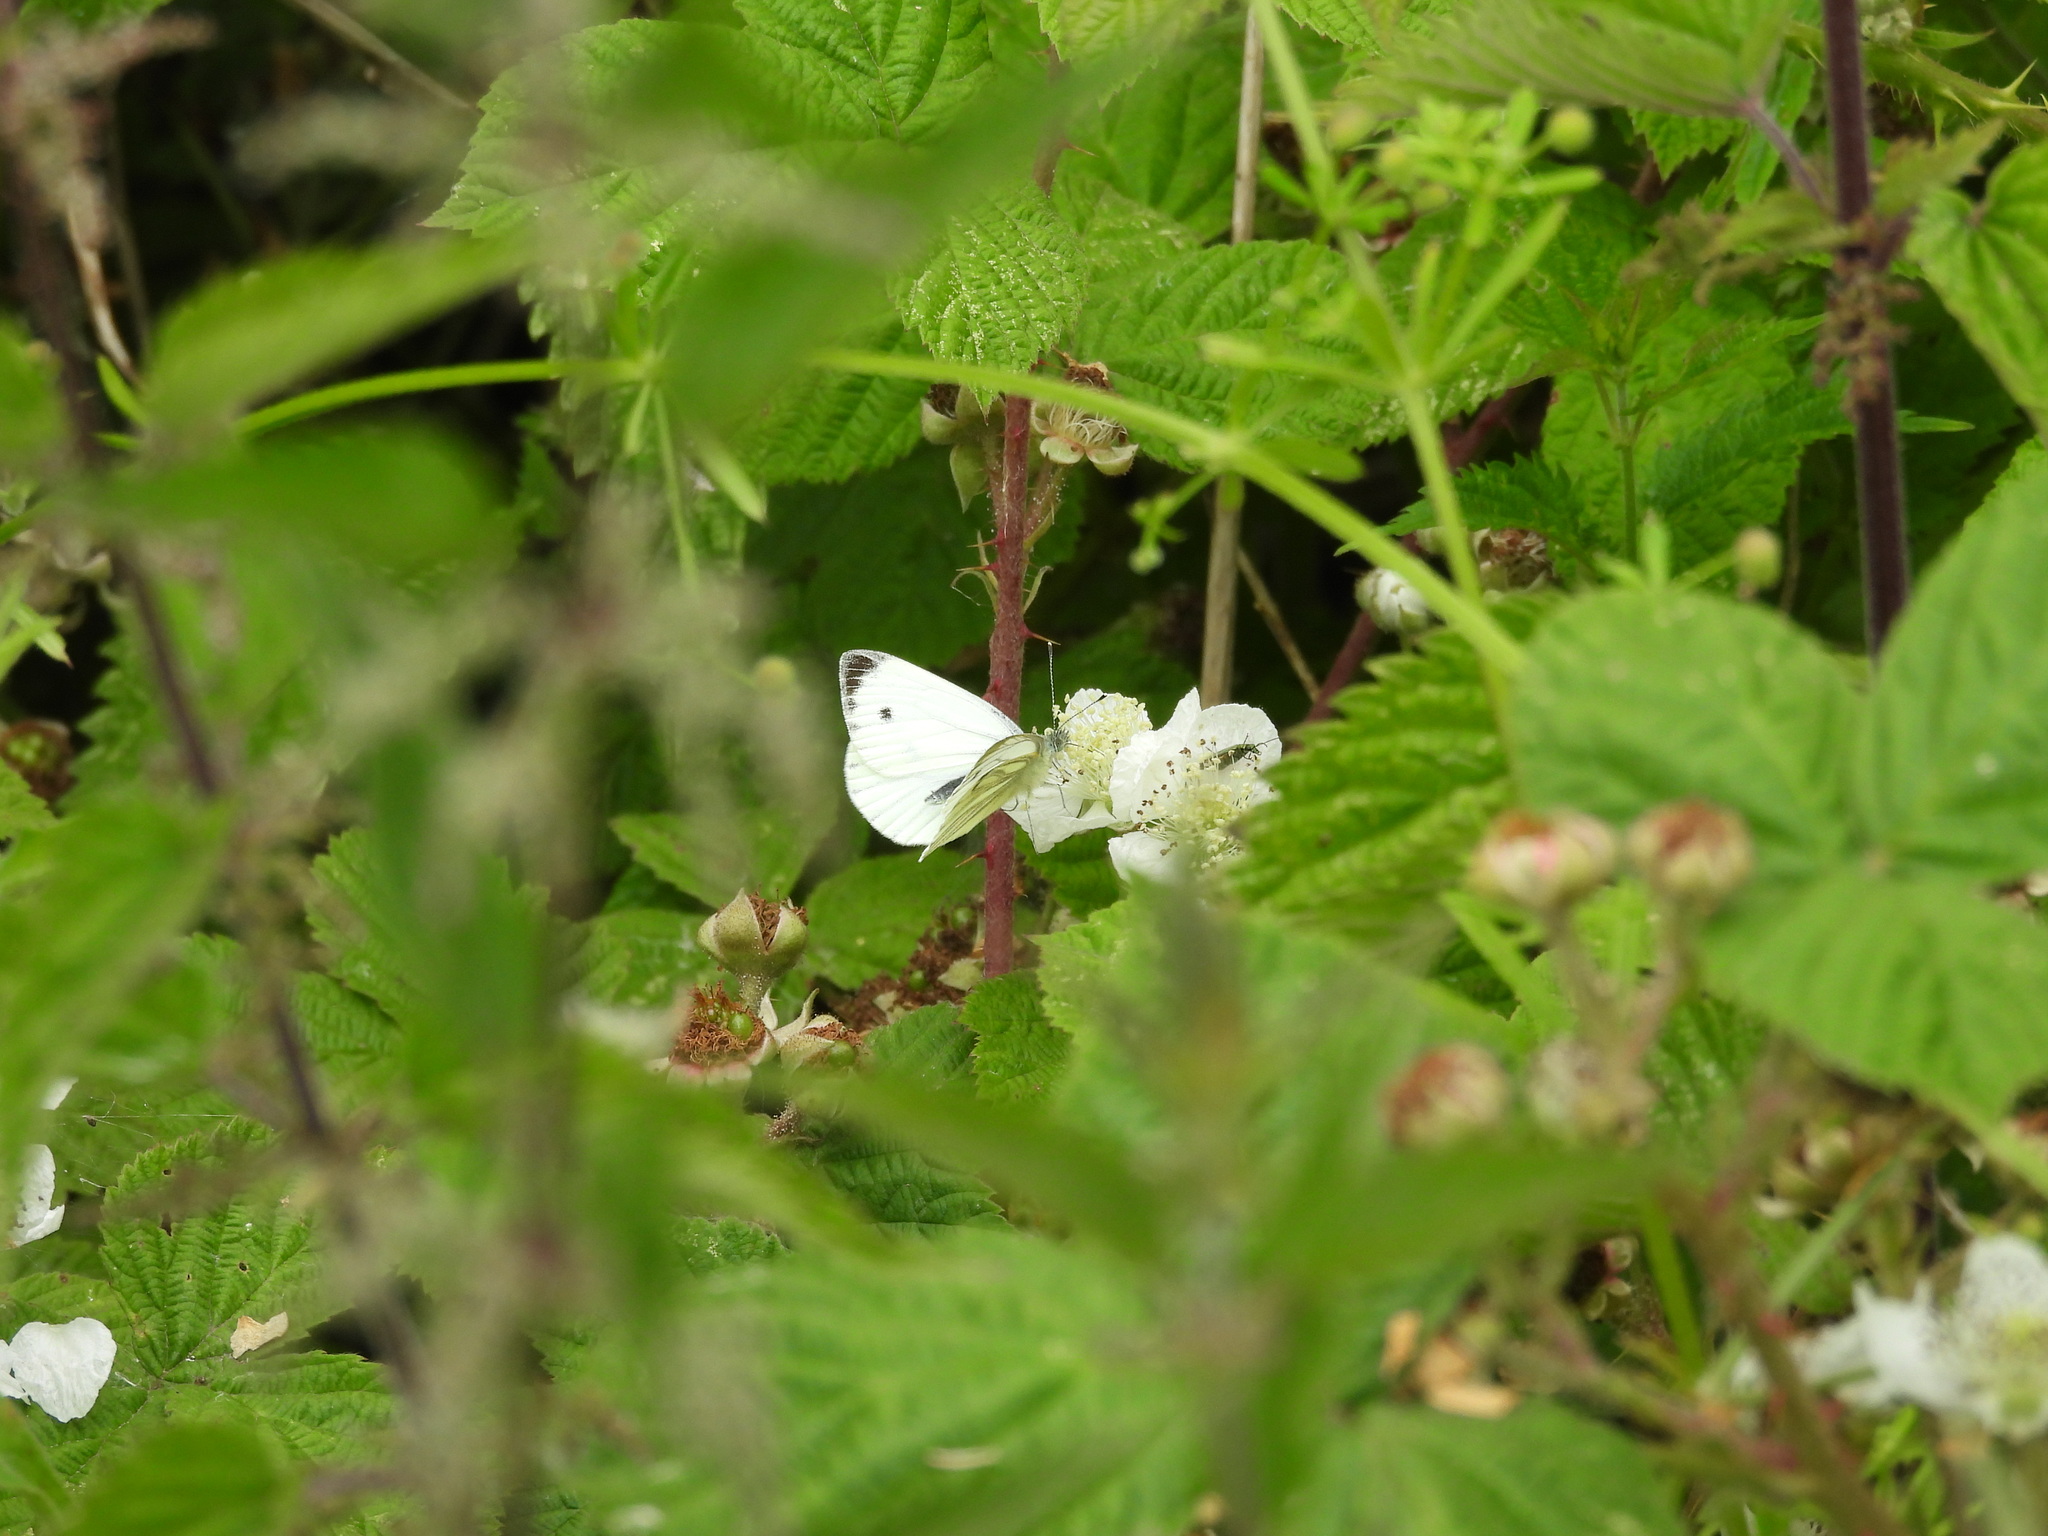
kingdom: Animalia
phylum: Arthropoda
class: Insecta
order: Lepidoptera
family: Pieridae
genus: Pieris
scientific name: Pieris napi
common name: Green-veined white
